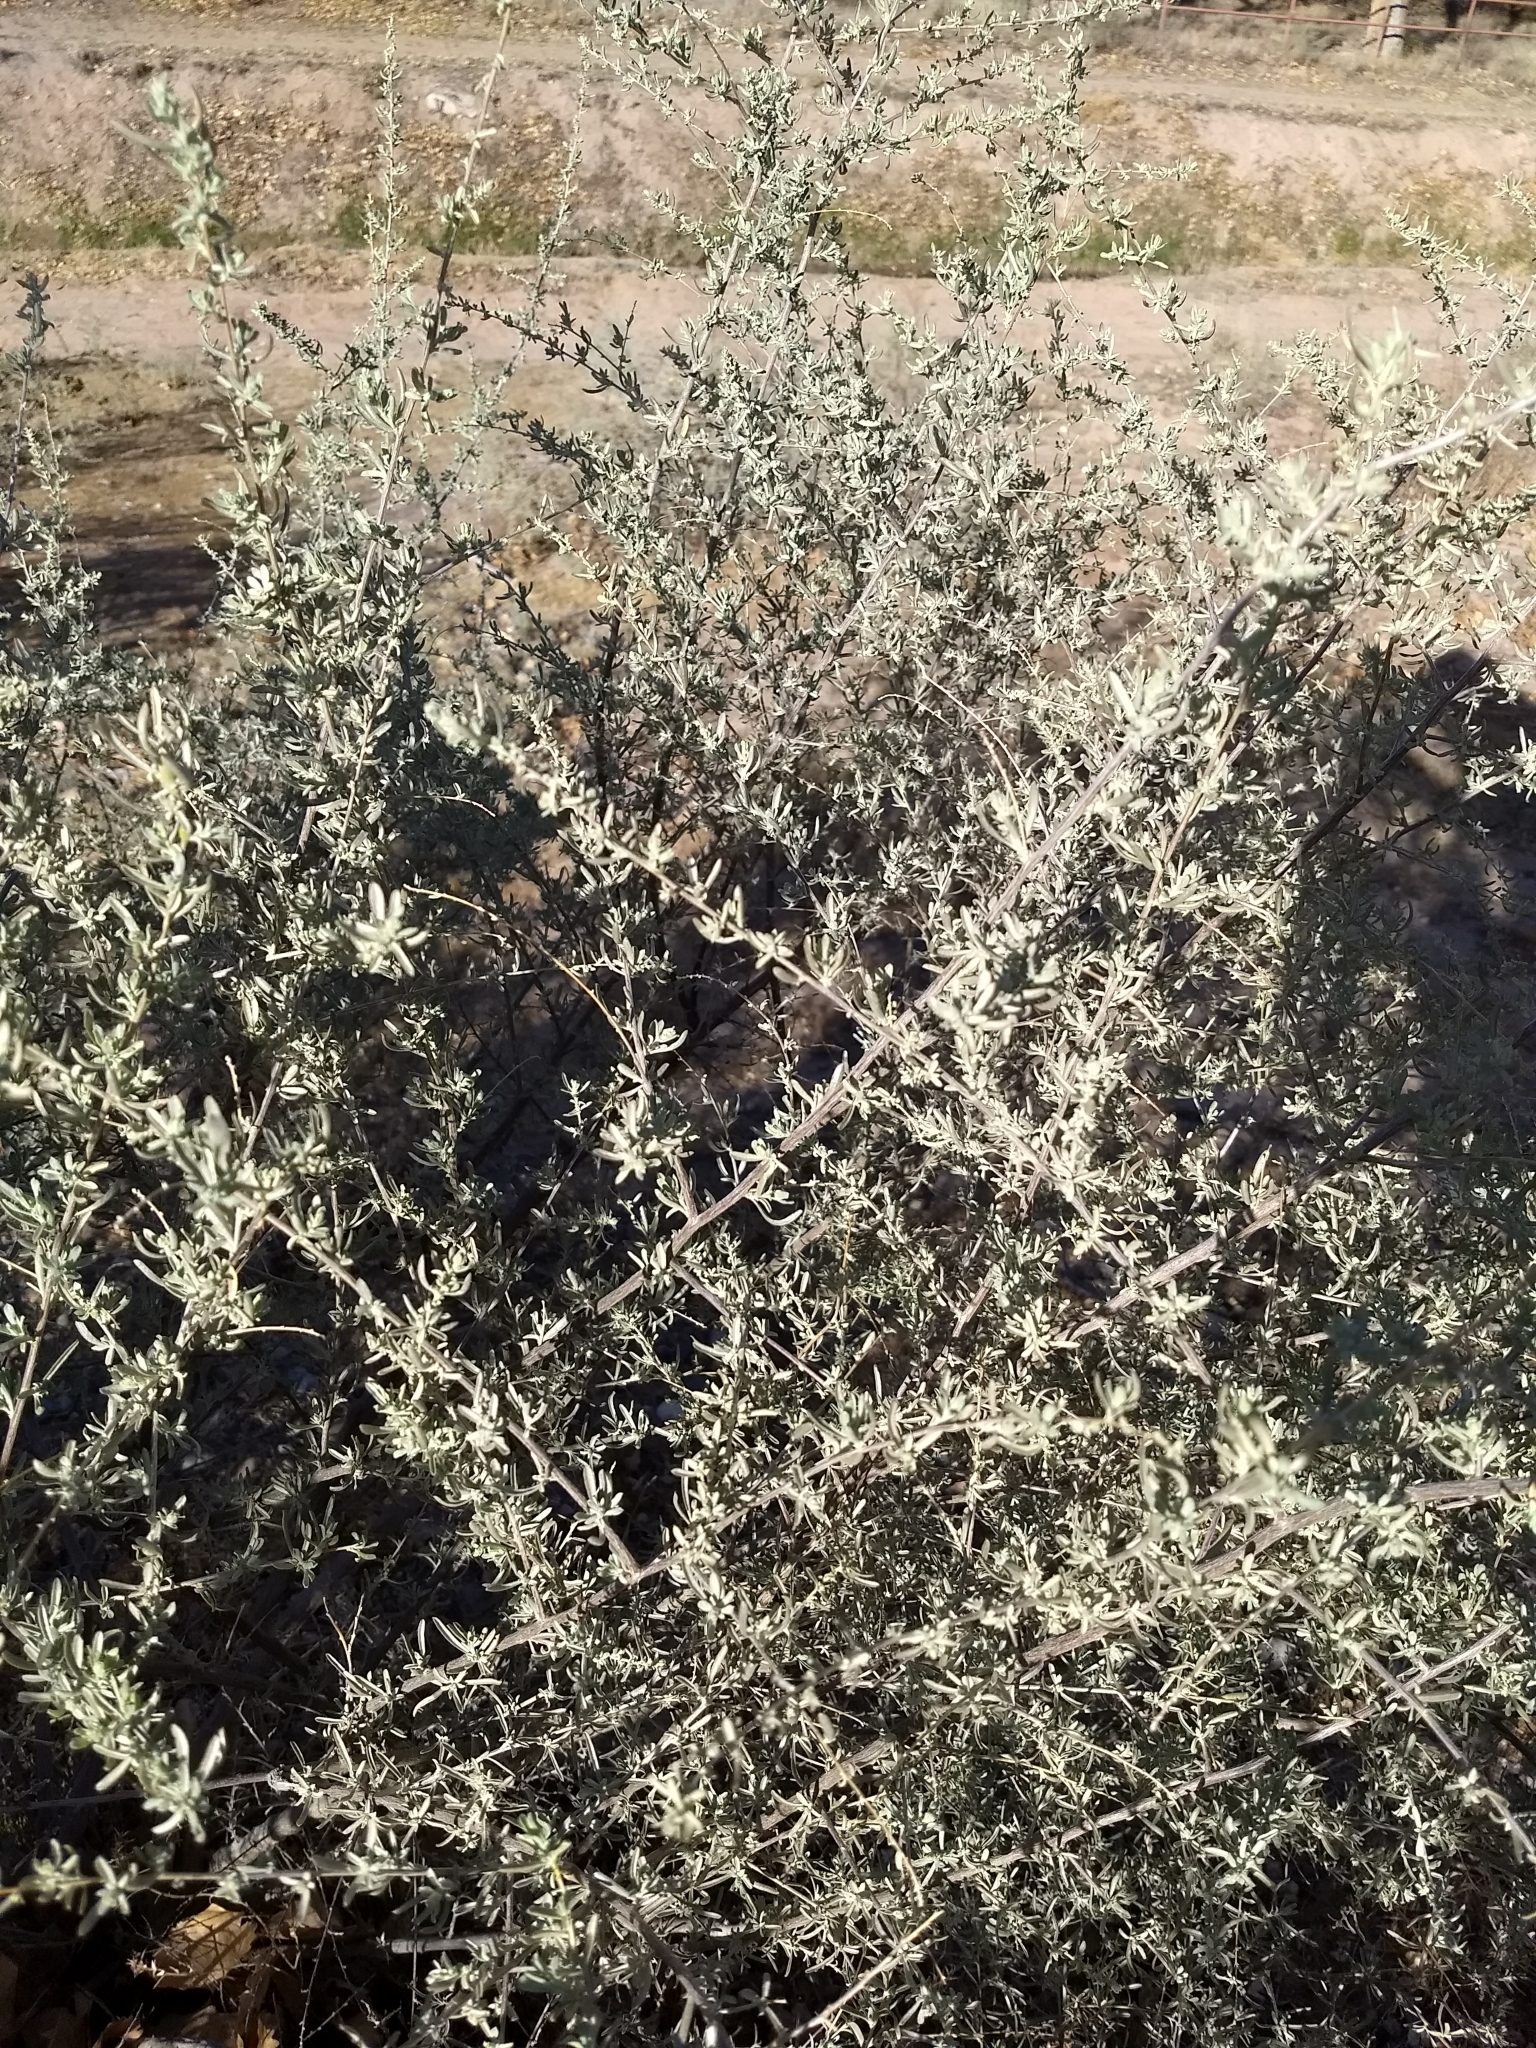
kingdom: Plantae
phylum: Tracheophyta
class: Magnoliopsida
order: Caryophyllales
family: Amaranthaceae
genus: Atriplex
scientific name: Atriplex canescens
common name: Four-wing saltbush
